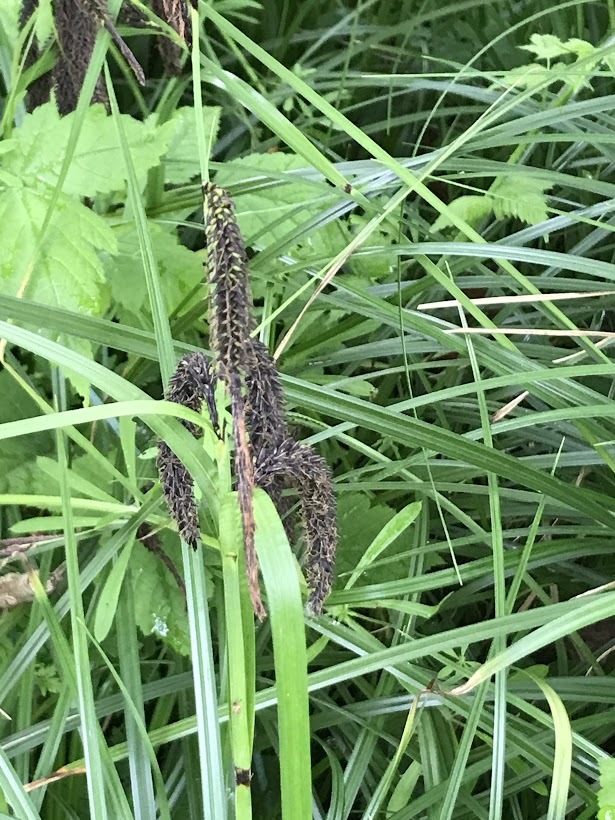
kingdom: Plantae
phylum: Tracheophyta
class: Liliopsida
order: Poales
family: Cyperaceae
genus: Carex
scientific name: Carex obnupta
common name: Slough sedge
